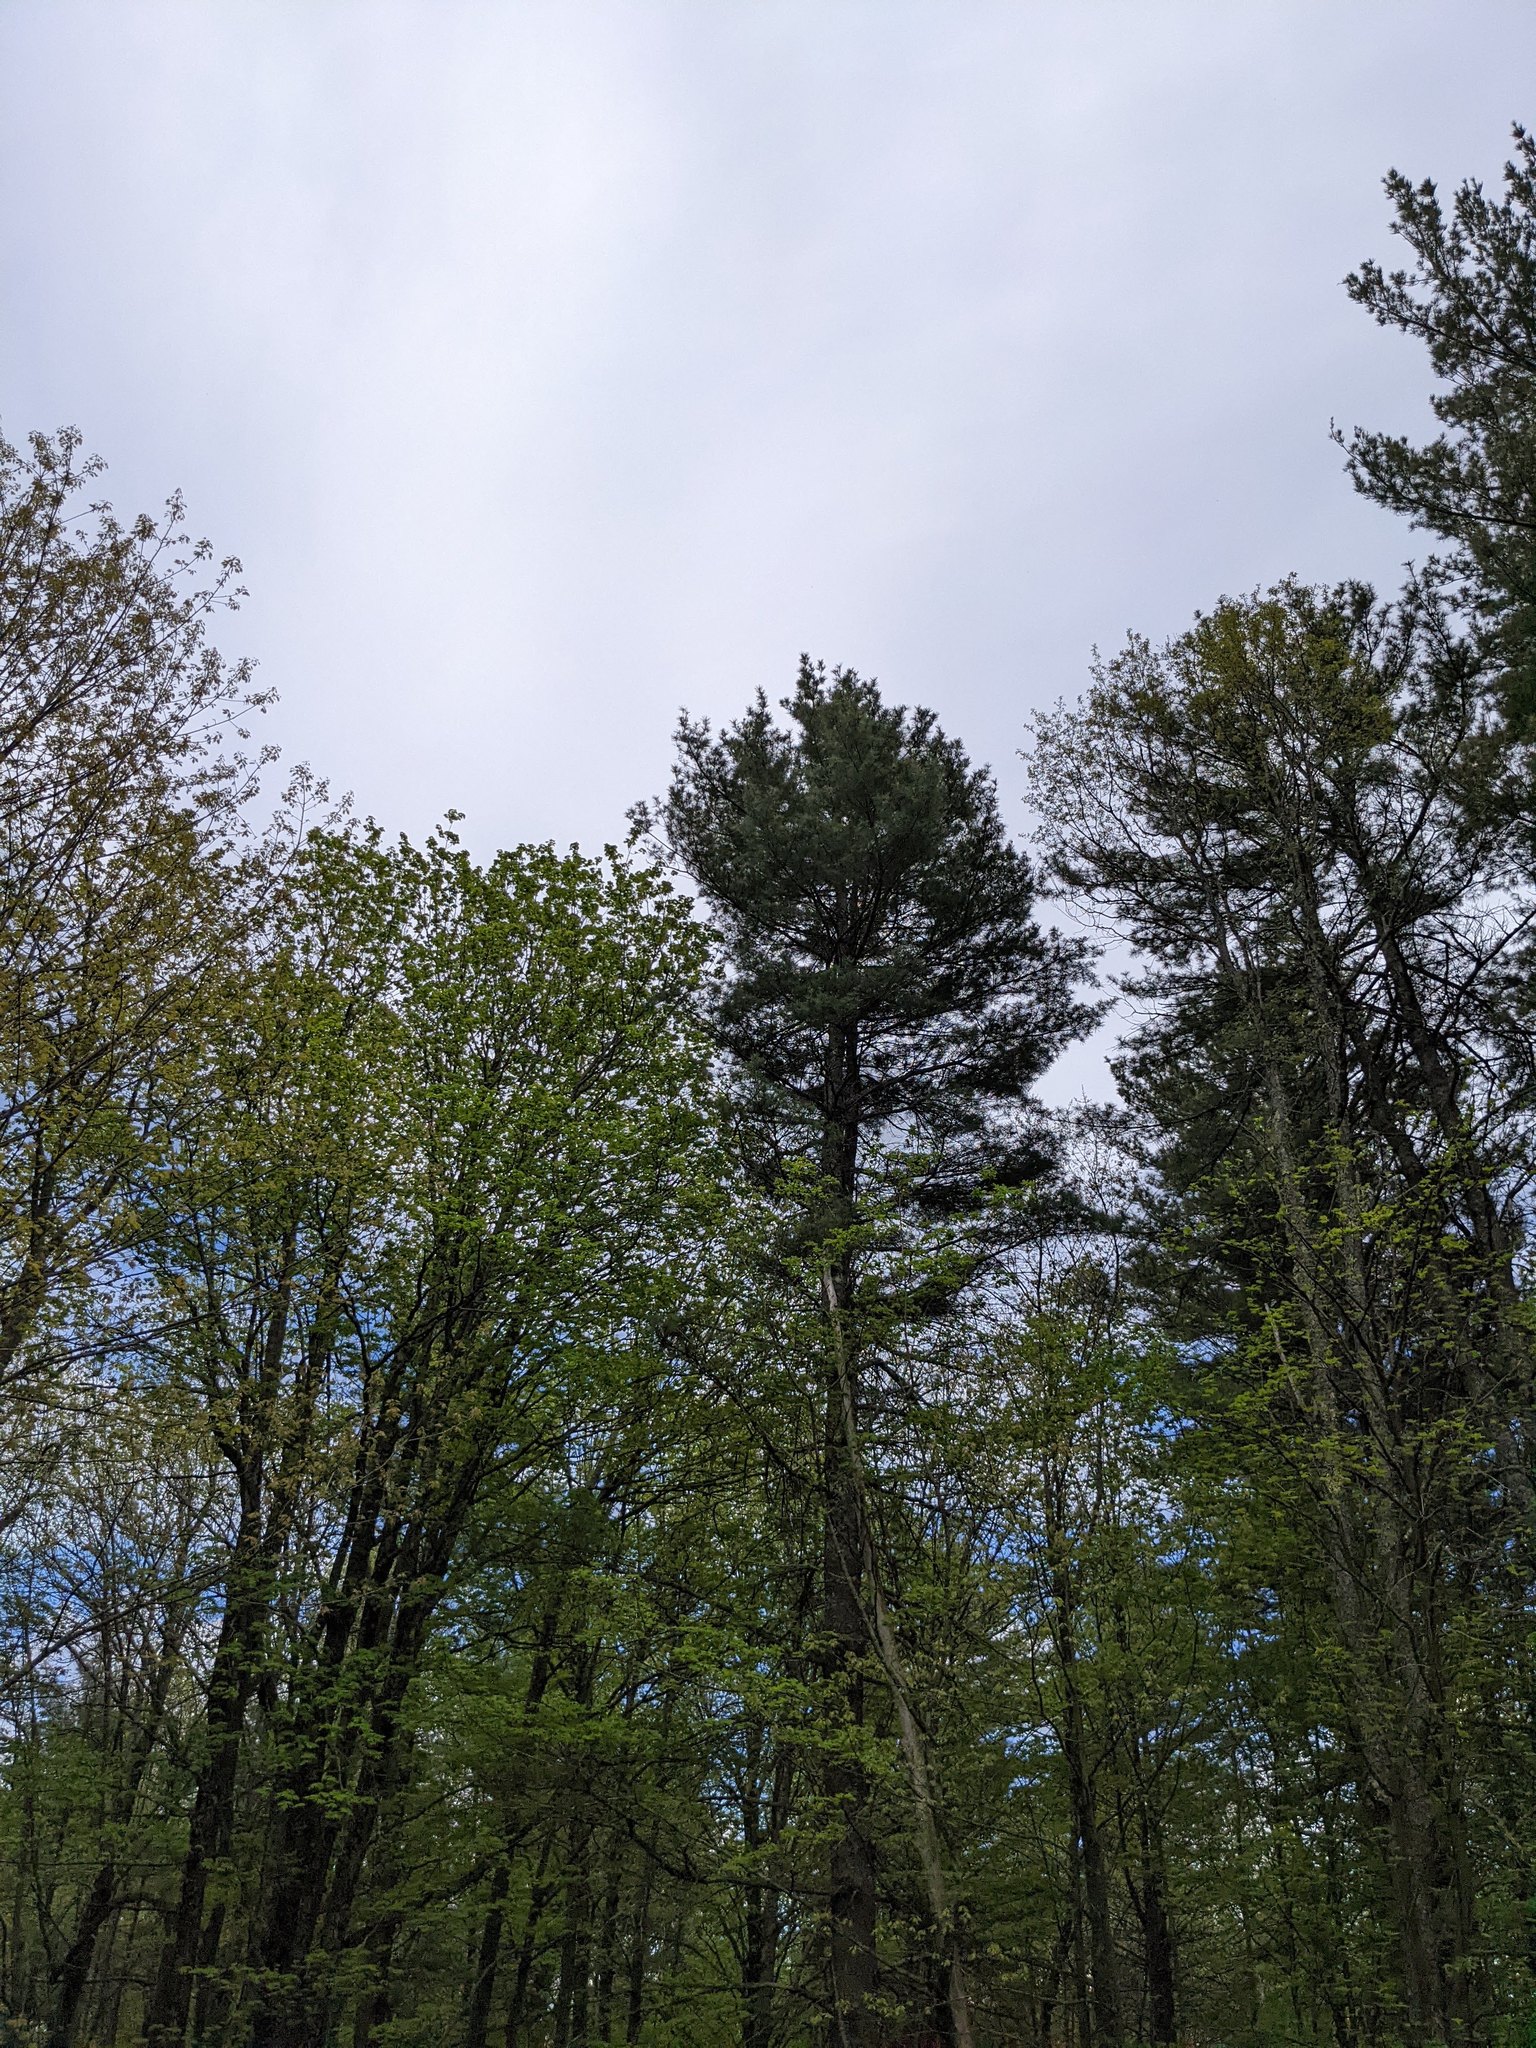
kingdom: Plantae
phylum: Tracheophyta
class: Pinopsida
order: Pinales
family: Pinaceae
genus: Pinus
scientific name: Pinus strobus
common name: Weymouth pine
